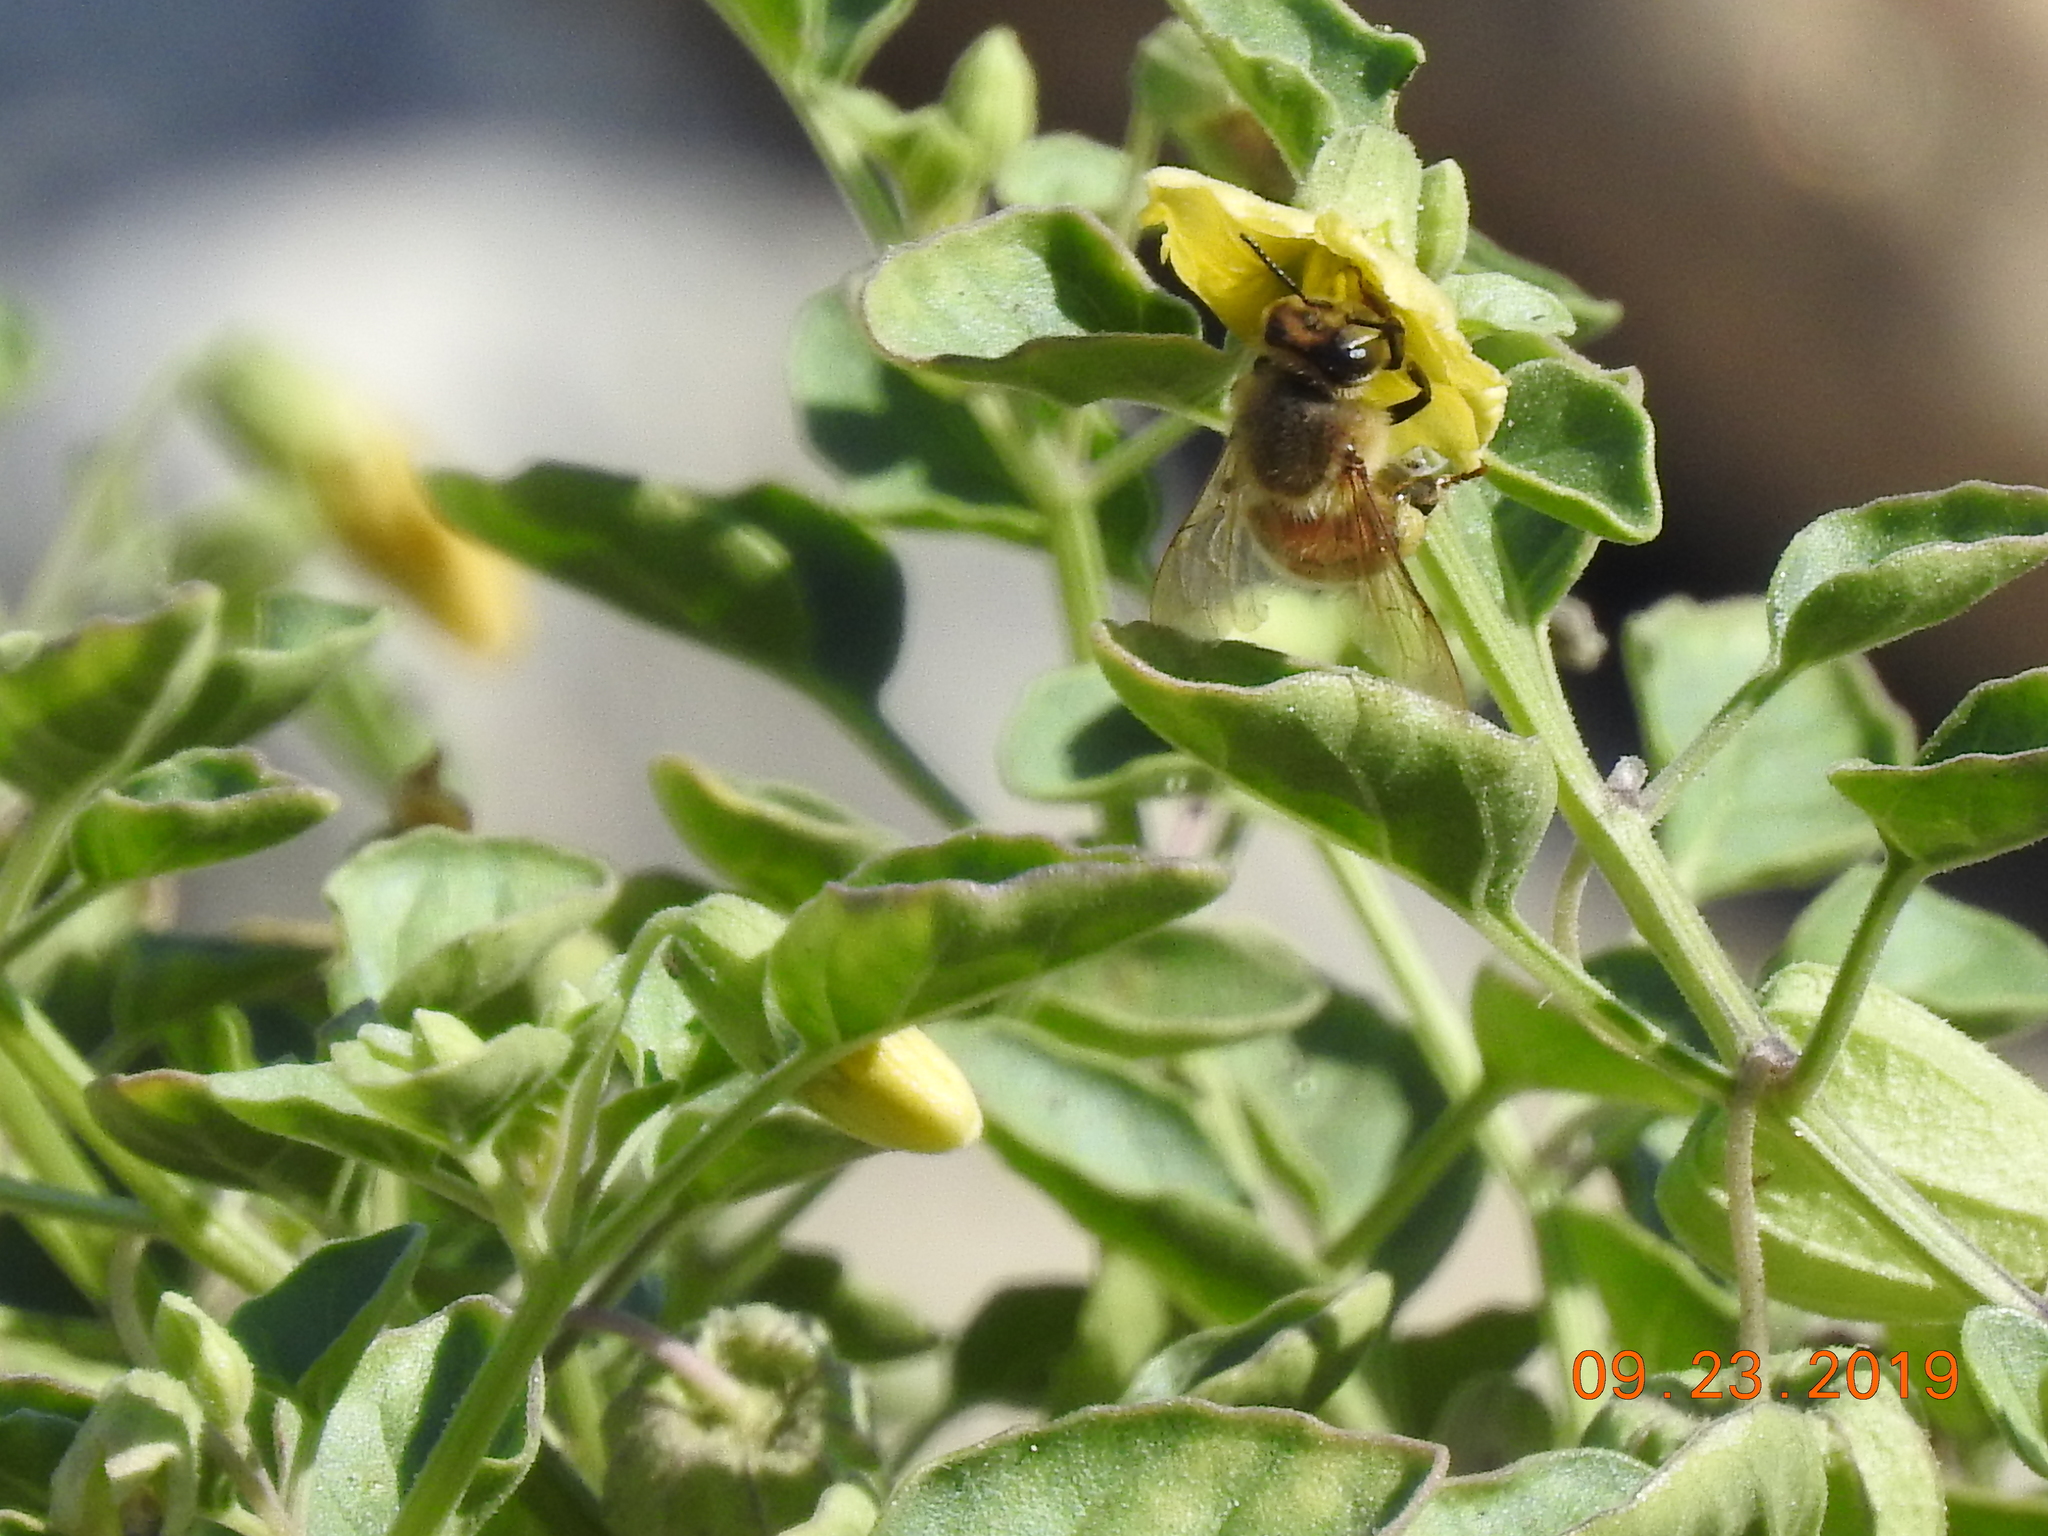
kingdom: Animalia
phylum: Arthropoda
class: Insecta
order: Hymenoptera
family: Apidae
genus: Apis
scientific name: Apis mellifera
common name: Honey bee
